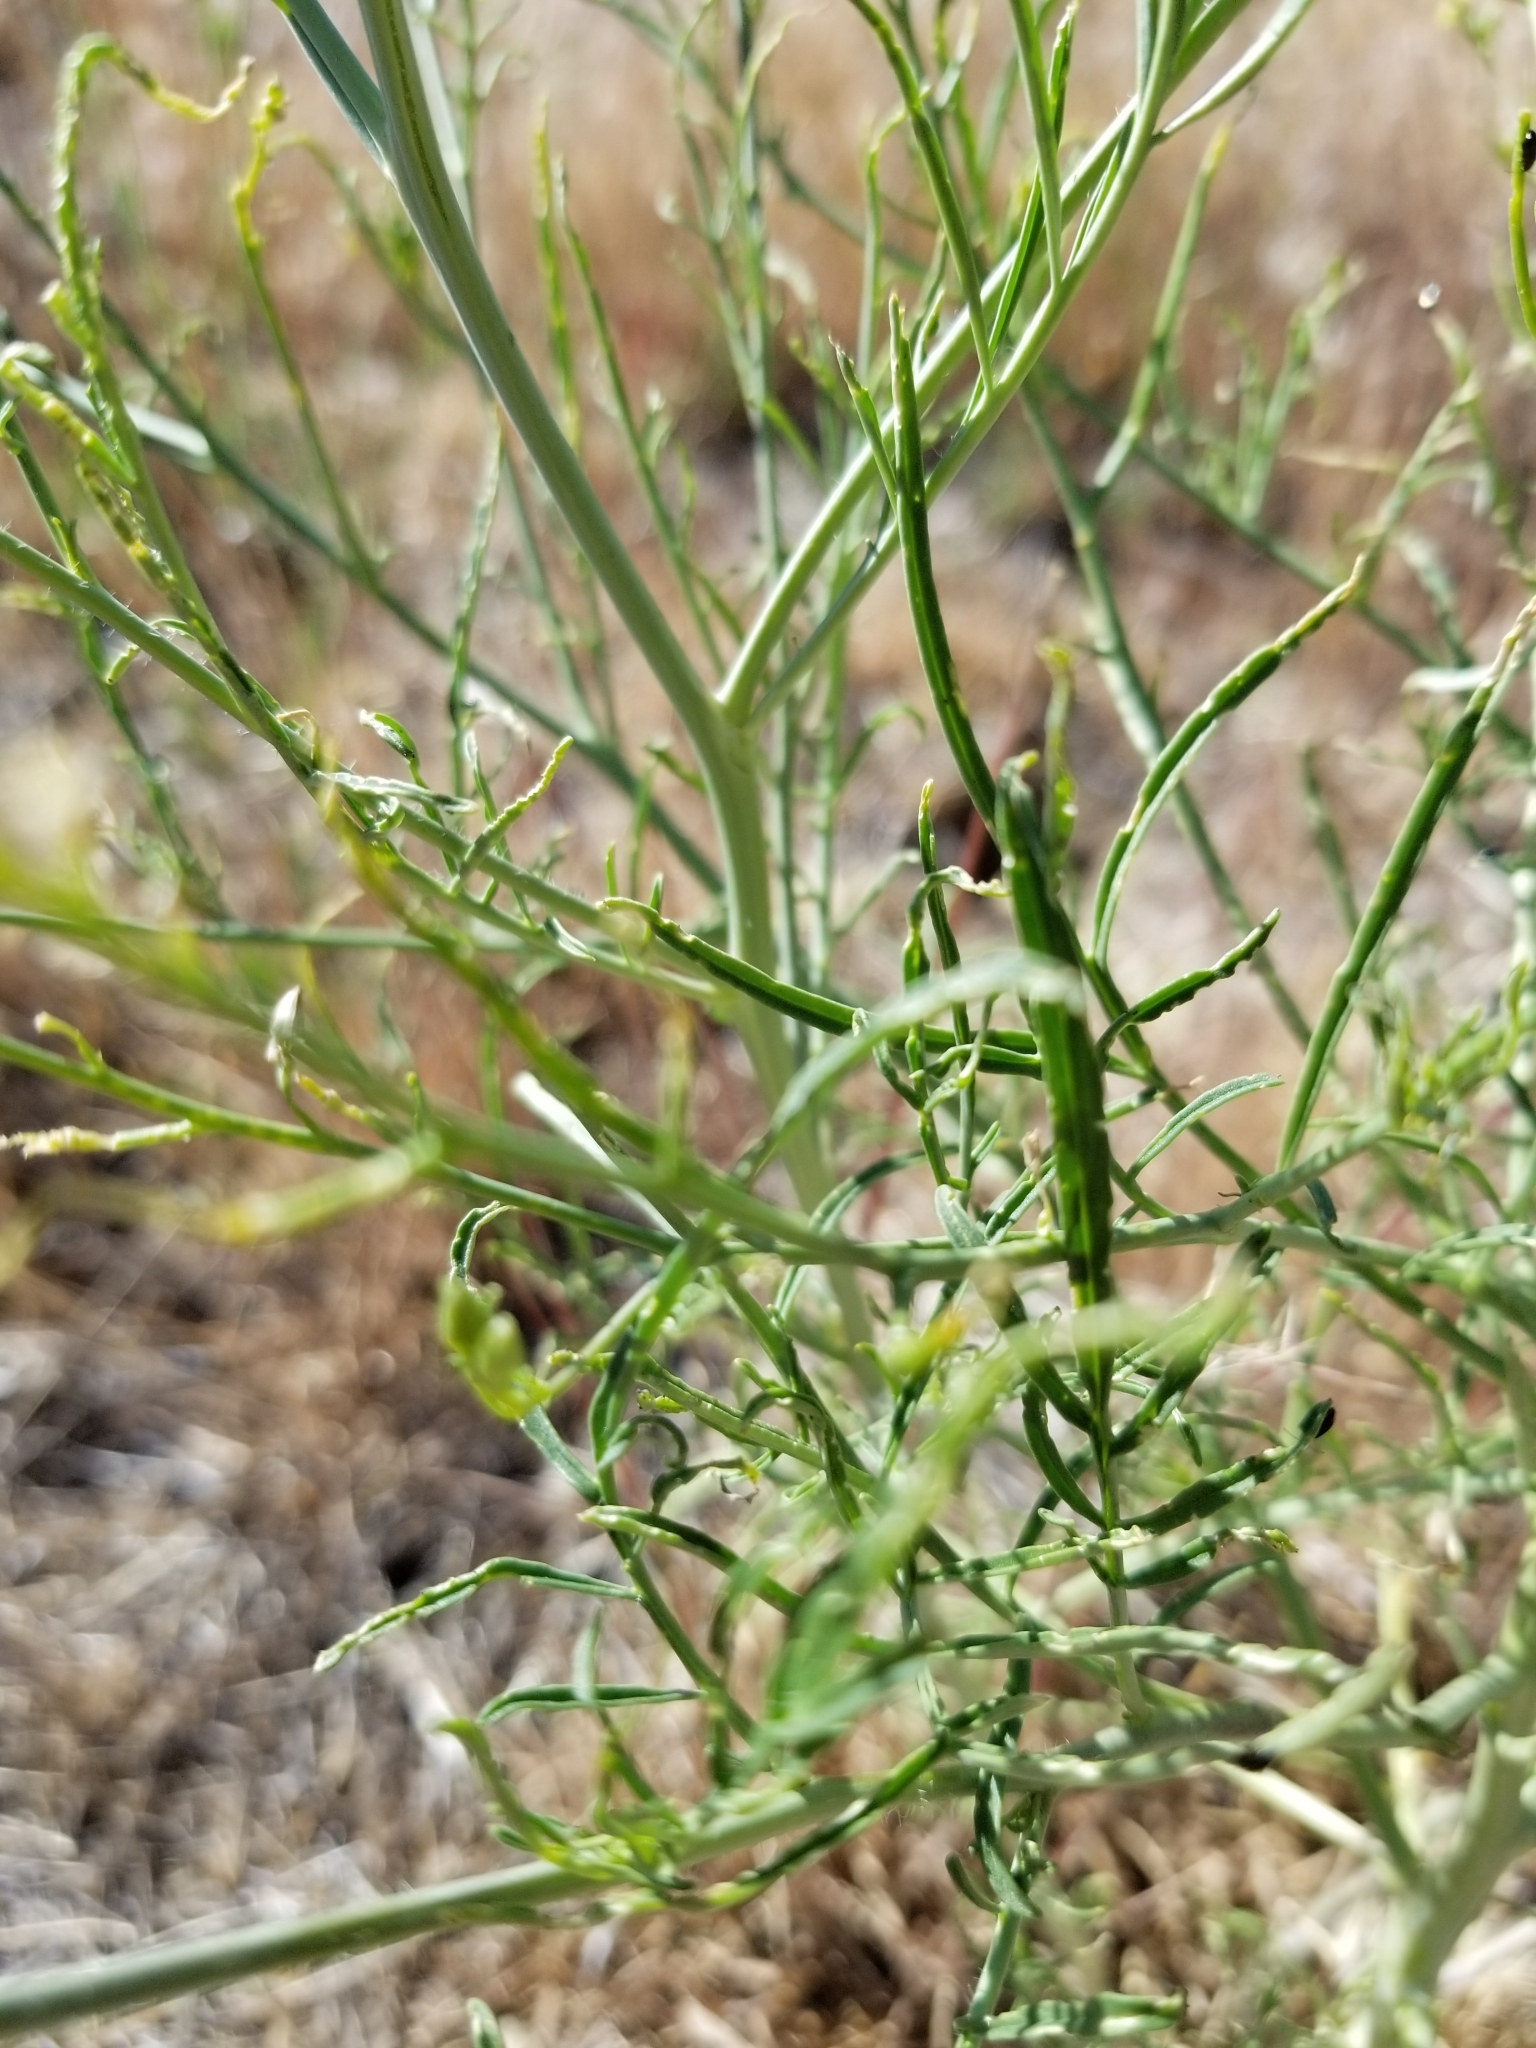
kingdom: Plantae
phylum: Tracheophyta
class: Magnoliopsida
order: Brassicales
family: Brassicaceae
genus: Sisymbrium
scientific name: Sisymbrium altissimum
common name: Tall rocket
